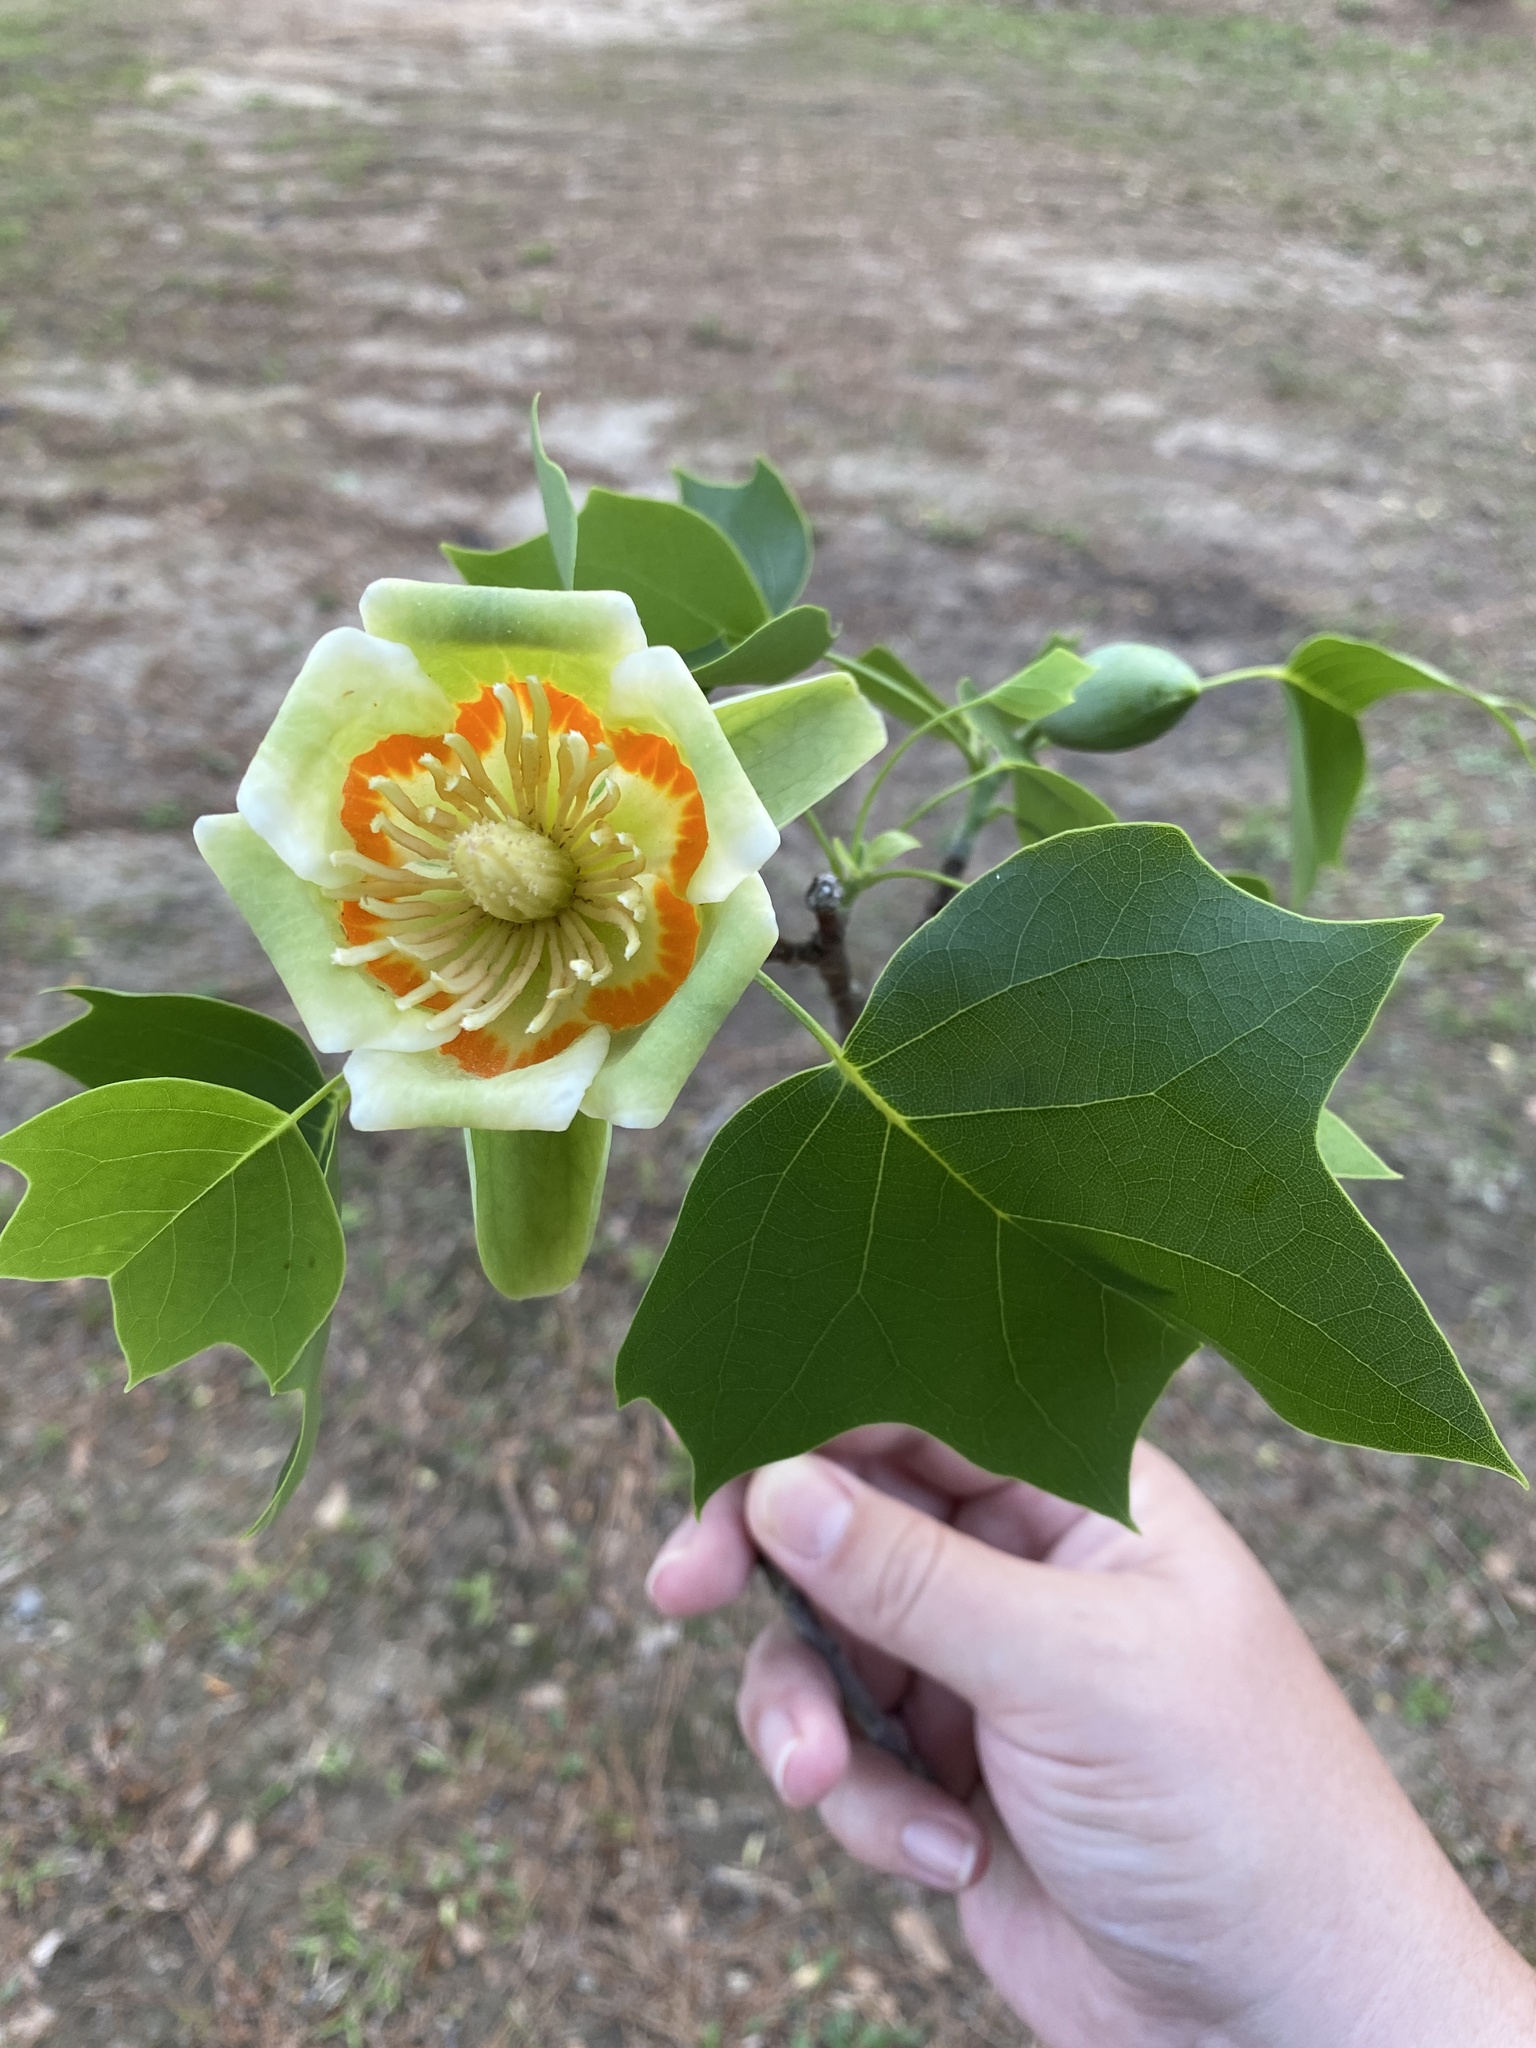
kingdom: Plantae
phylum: Tracheophyta
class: Magnoliopsida
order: Magnoliales
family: Magnoliaceae
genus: Liriodendron
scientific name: Liriodendron tulipifera
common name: Tulip tree
